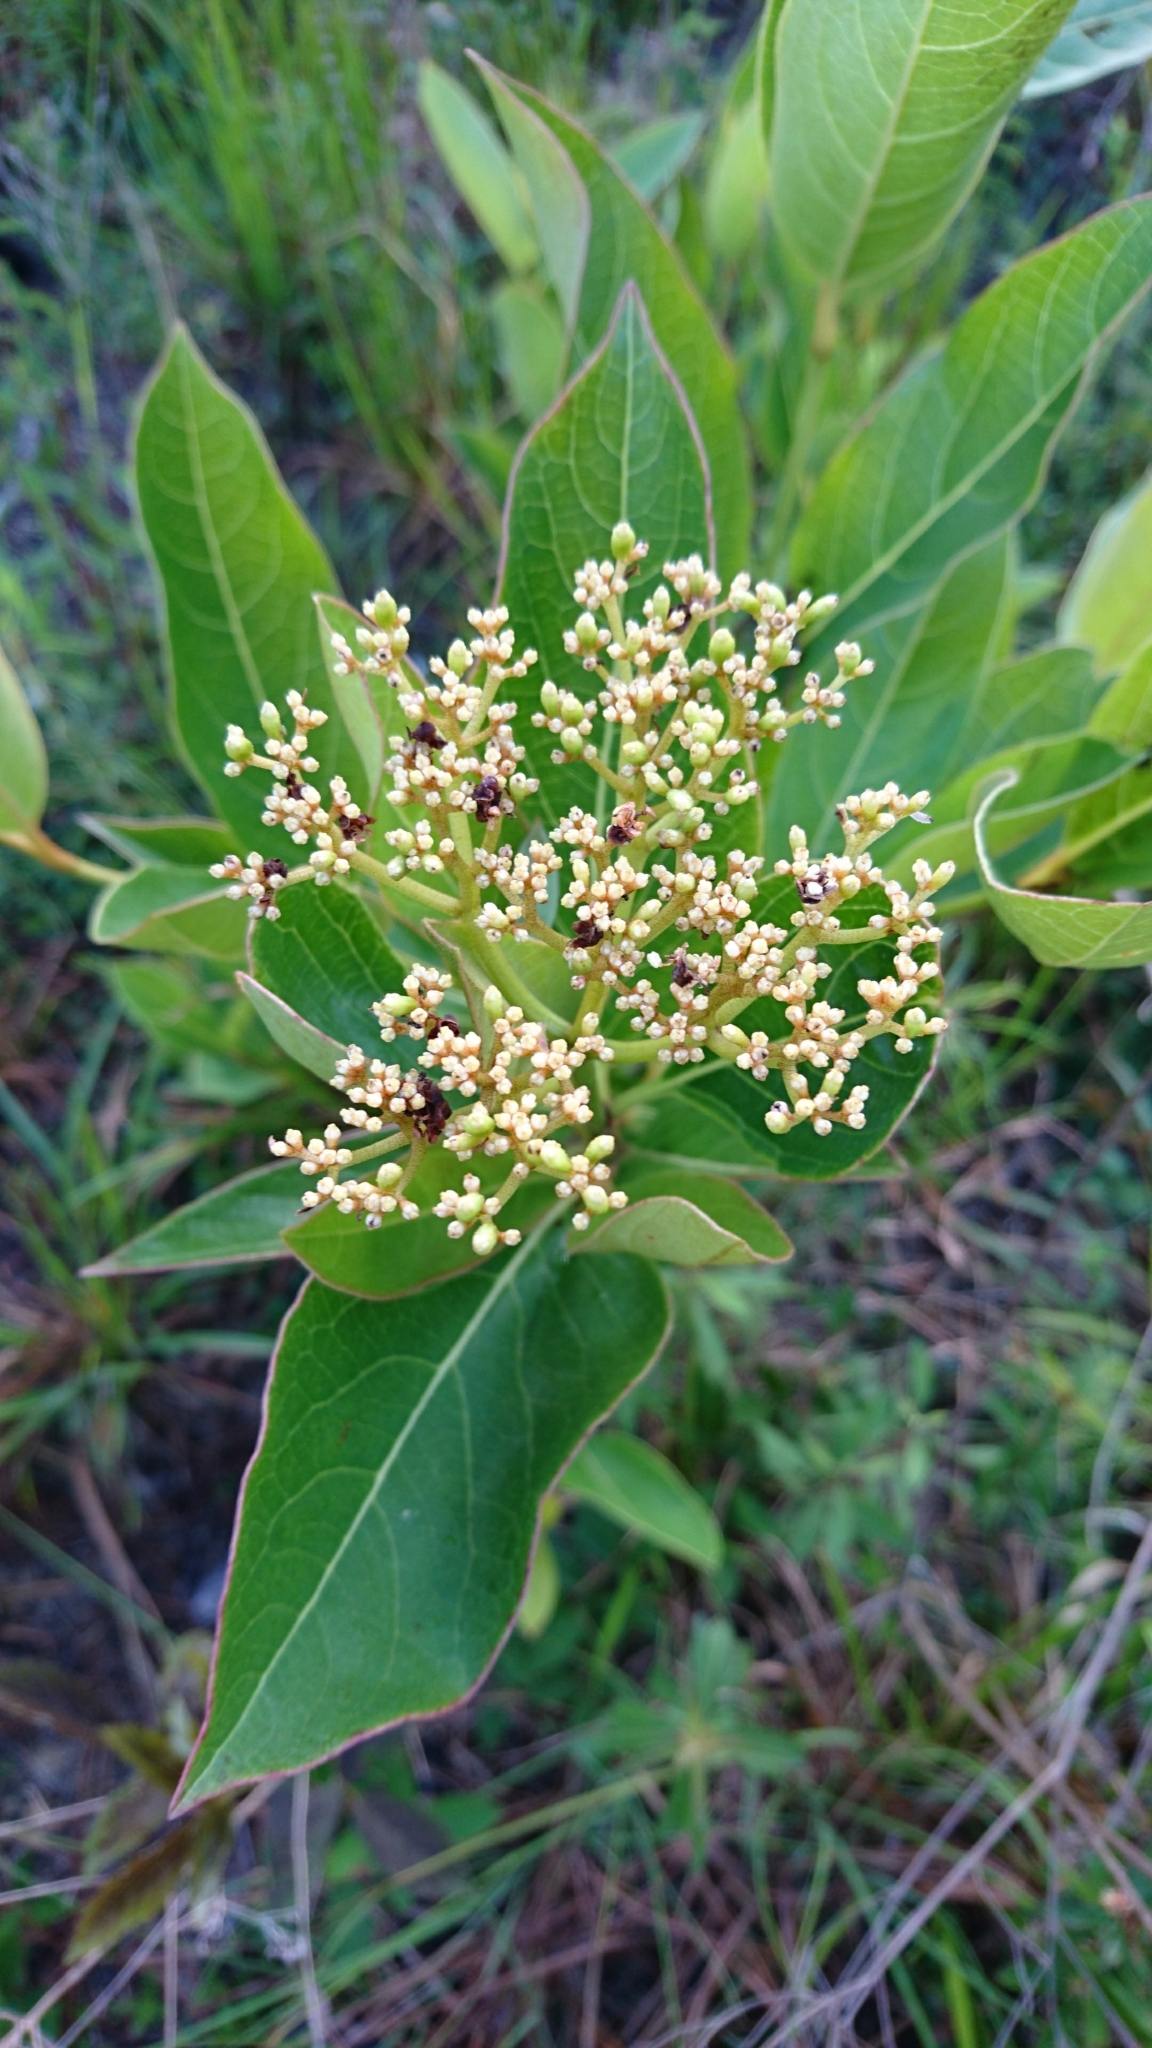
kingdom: Plantae
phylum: Tracheophyta
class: Magnoliopsida
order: Gentianales
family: Apocynaceae
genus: Apocynum
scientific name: Apocynum cannabinum
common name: Hemp dogbane
